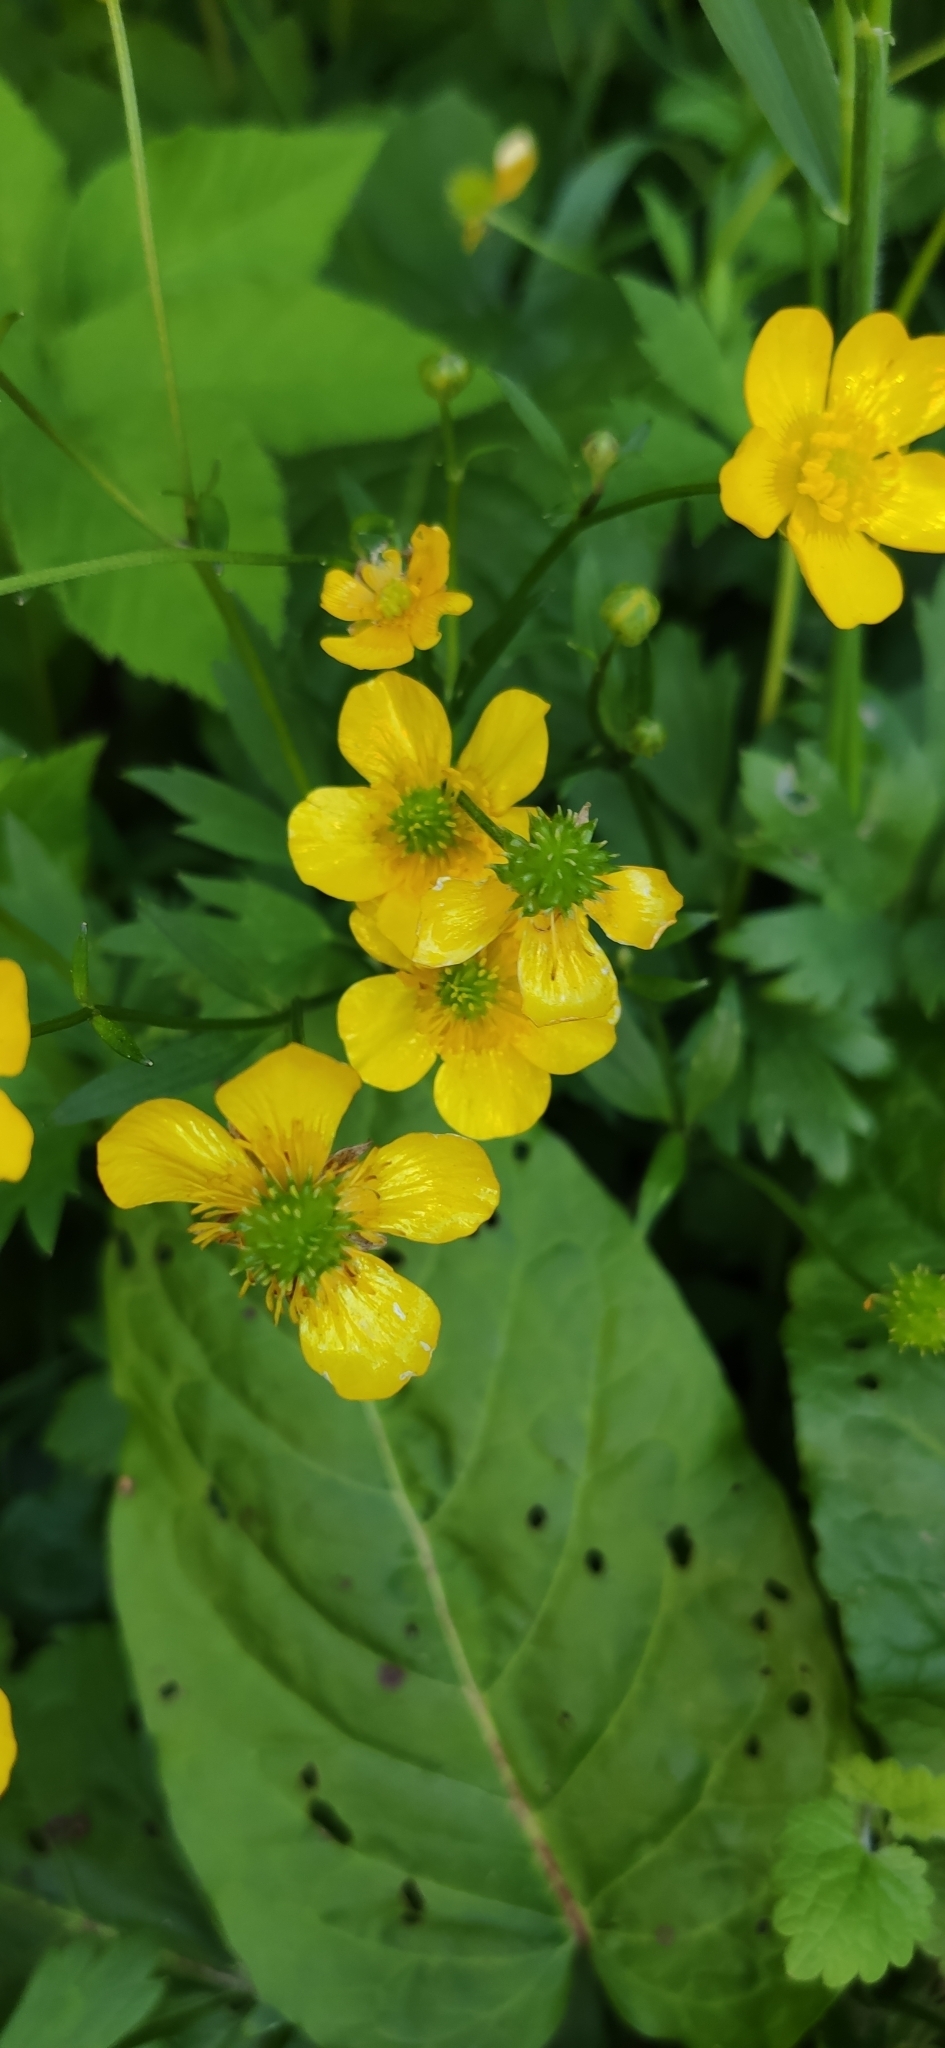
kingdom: Plantae
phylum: Tracheophyta
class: Magnoliopsida
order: Ranunculales
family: Ranunculaceae
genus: Ranunculus
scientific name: Ranunculus repens
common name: Creeping buttercup
